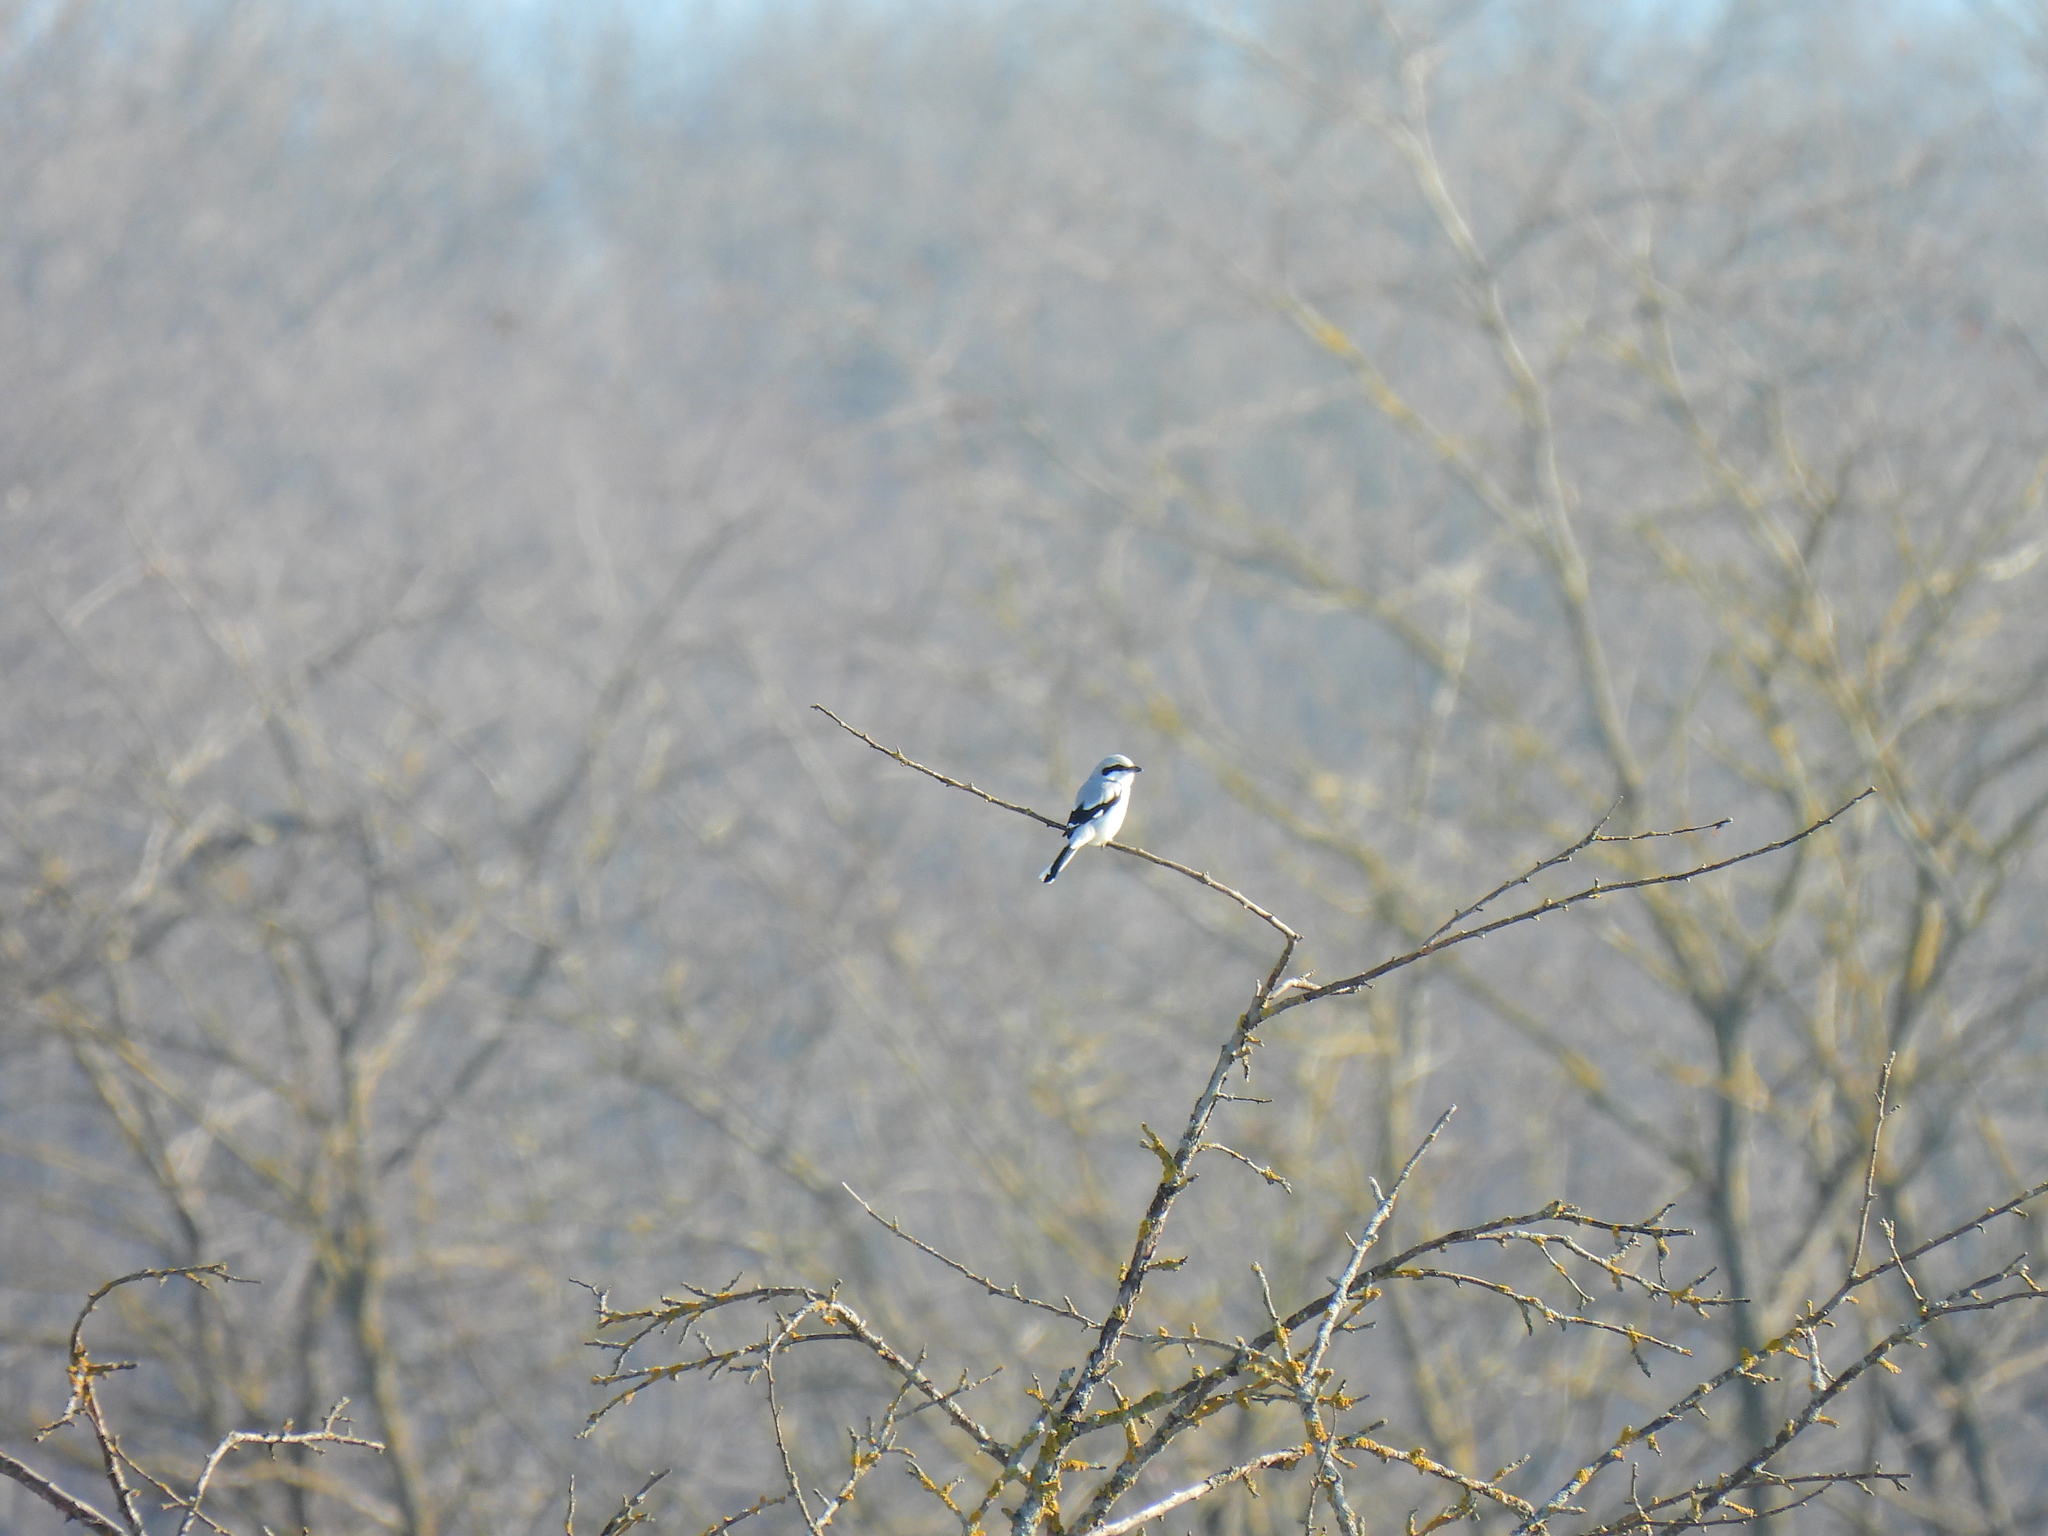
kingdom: Animalia
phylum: Chordata
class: Aves
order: Passeriformes
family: Laniidae
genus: Lanius
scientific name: Lanius excubitor
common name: Great grey shrike
